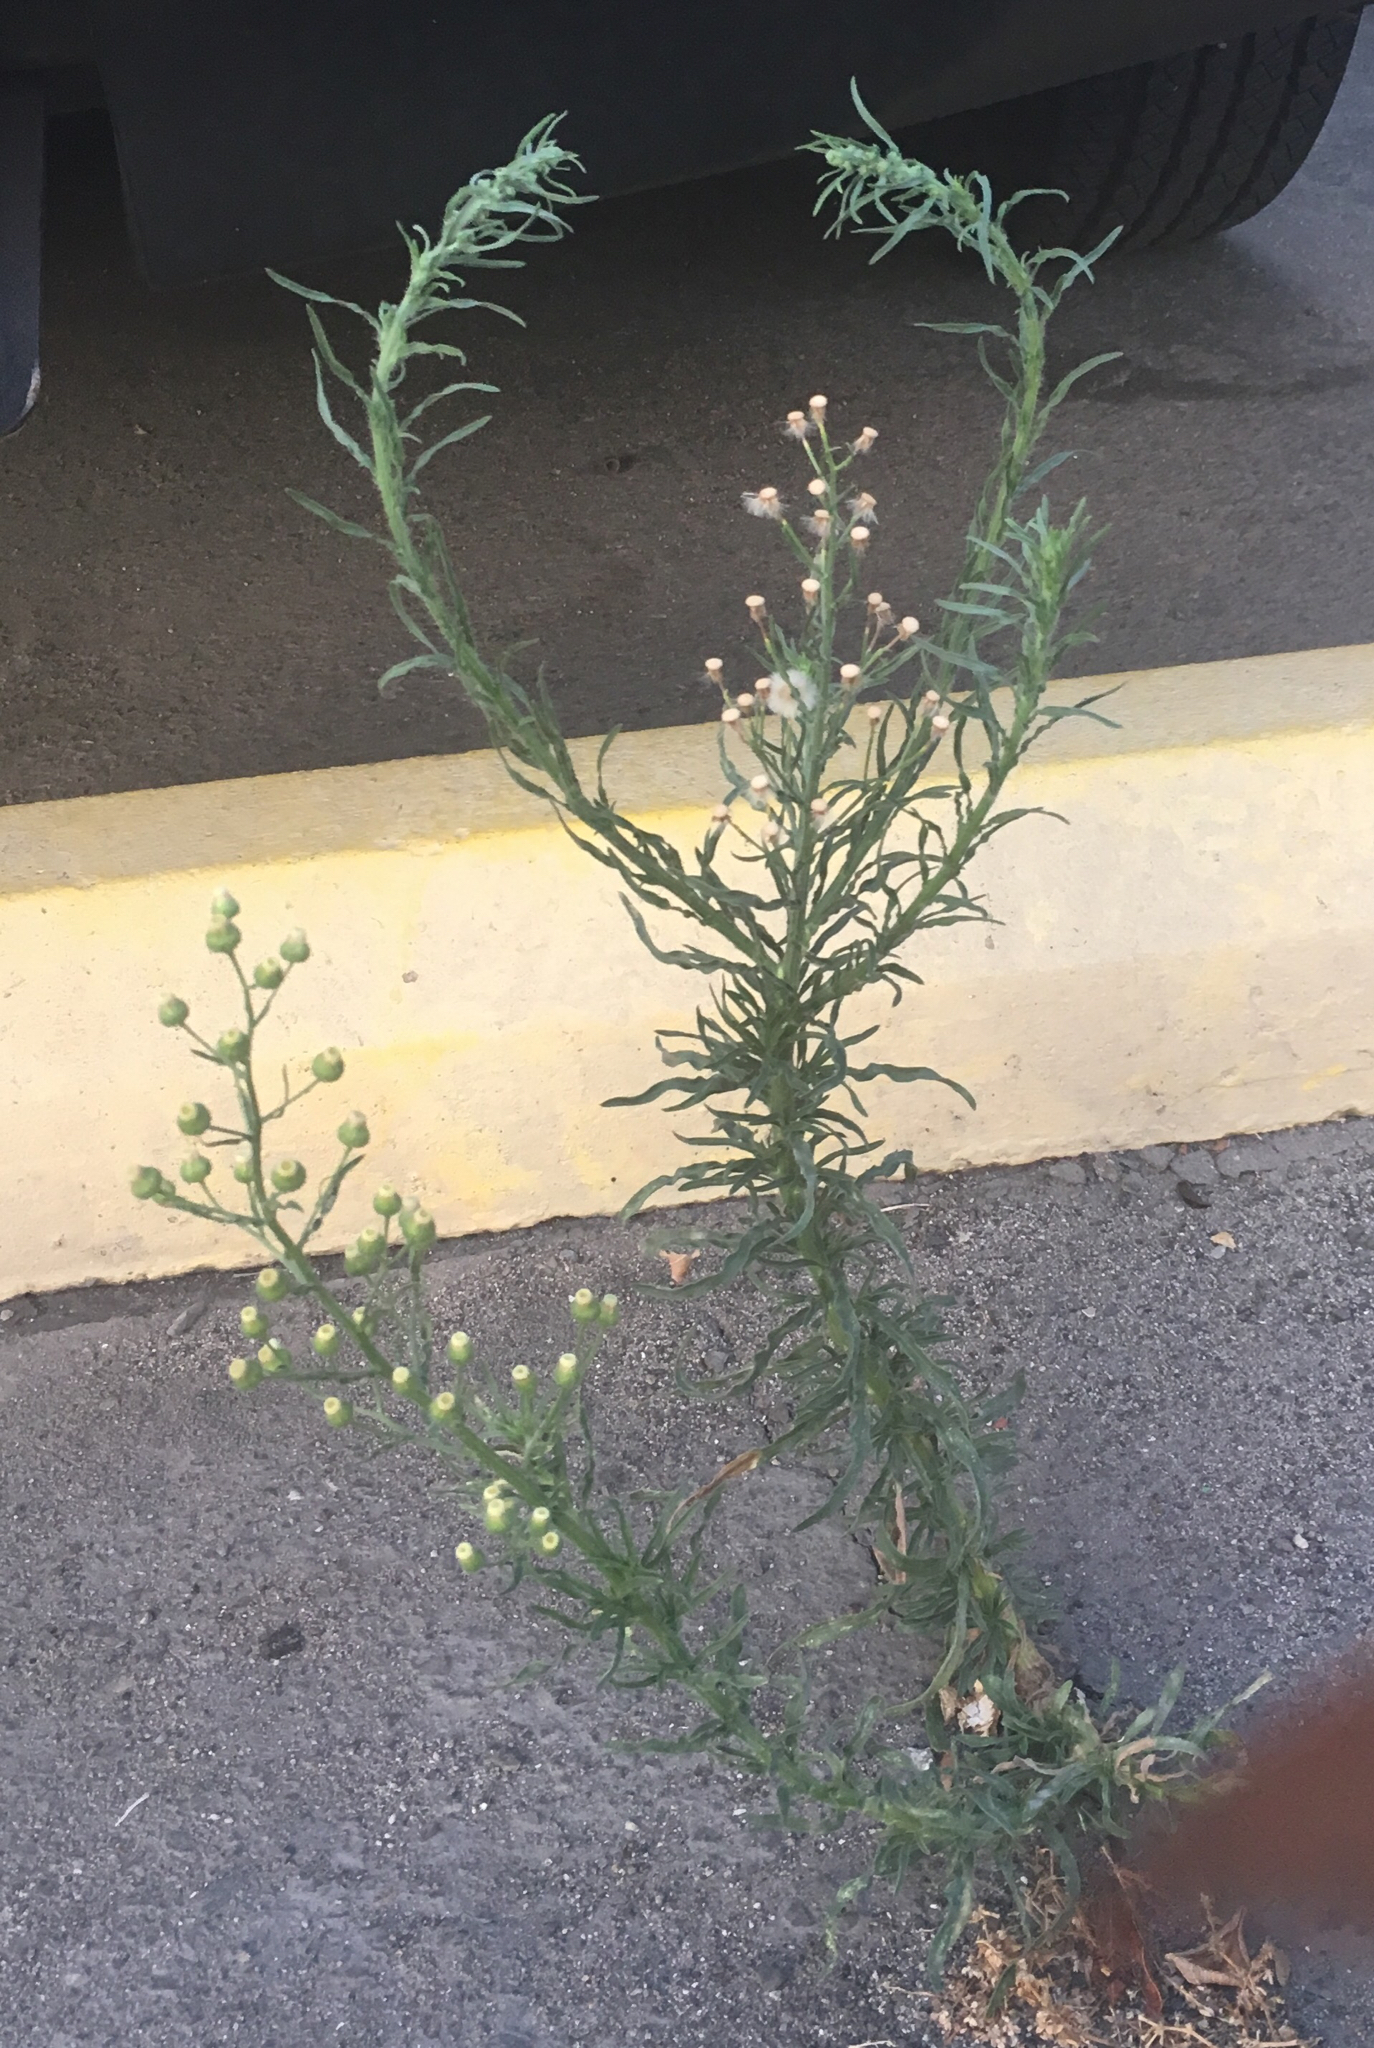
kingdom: Plantae
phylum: Tracheophyta
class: Magnoliopsida
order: Asterales
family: Asteraceae
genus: Erigeron
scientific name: Erigeron bonariensis
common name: Argentine fleabane
